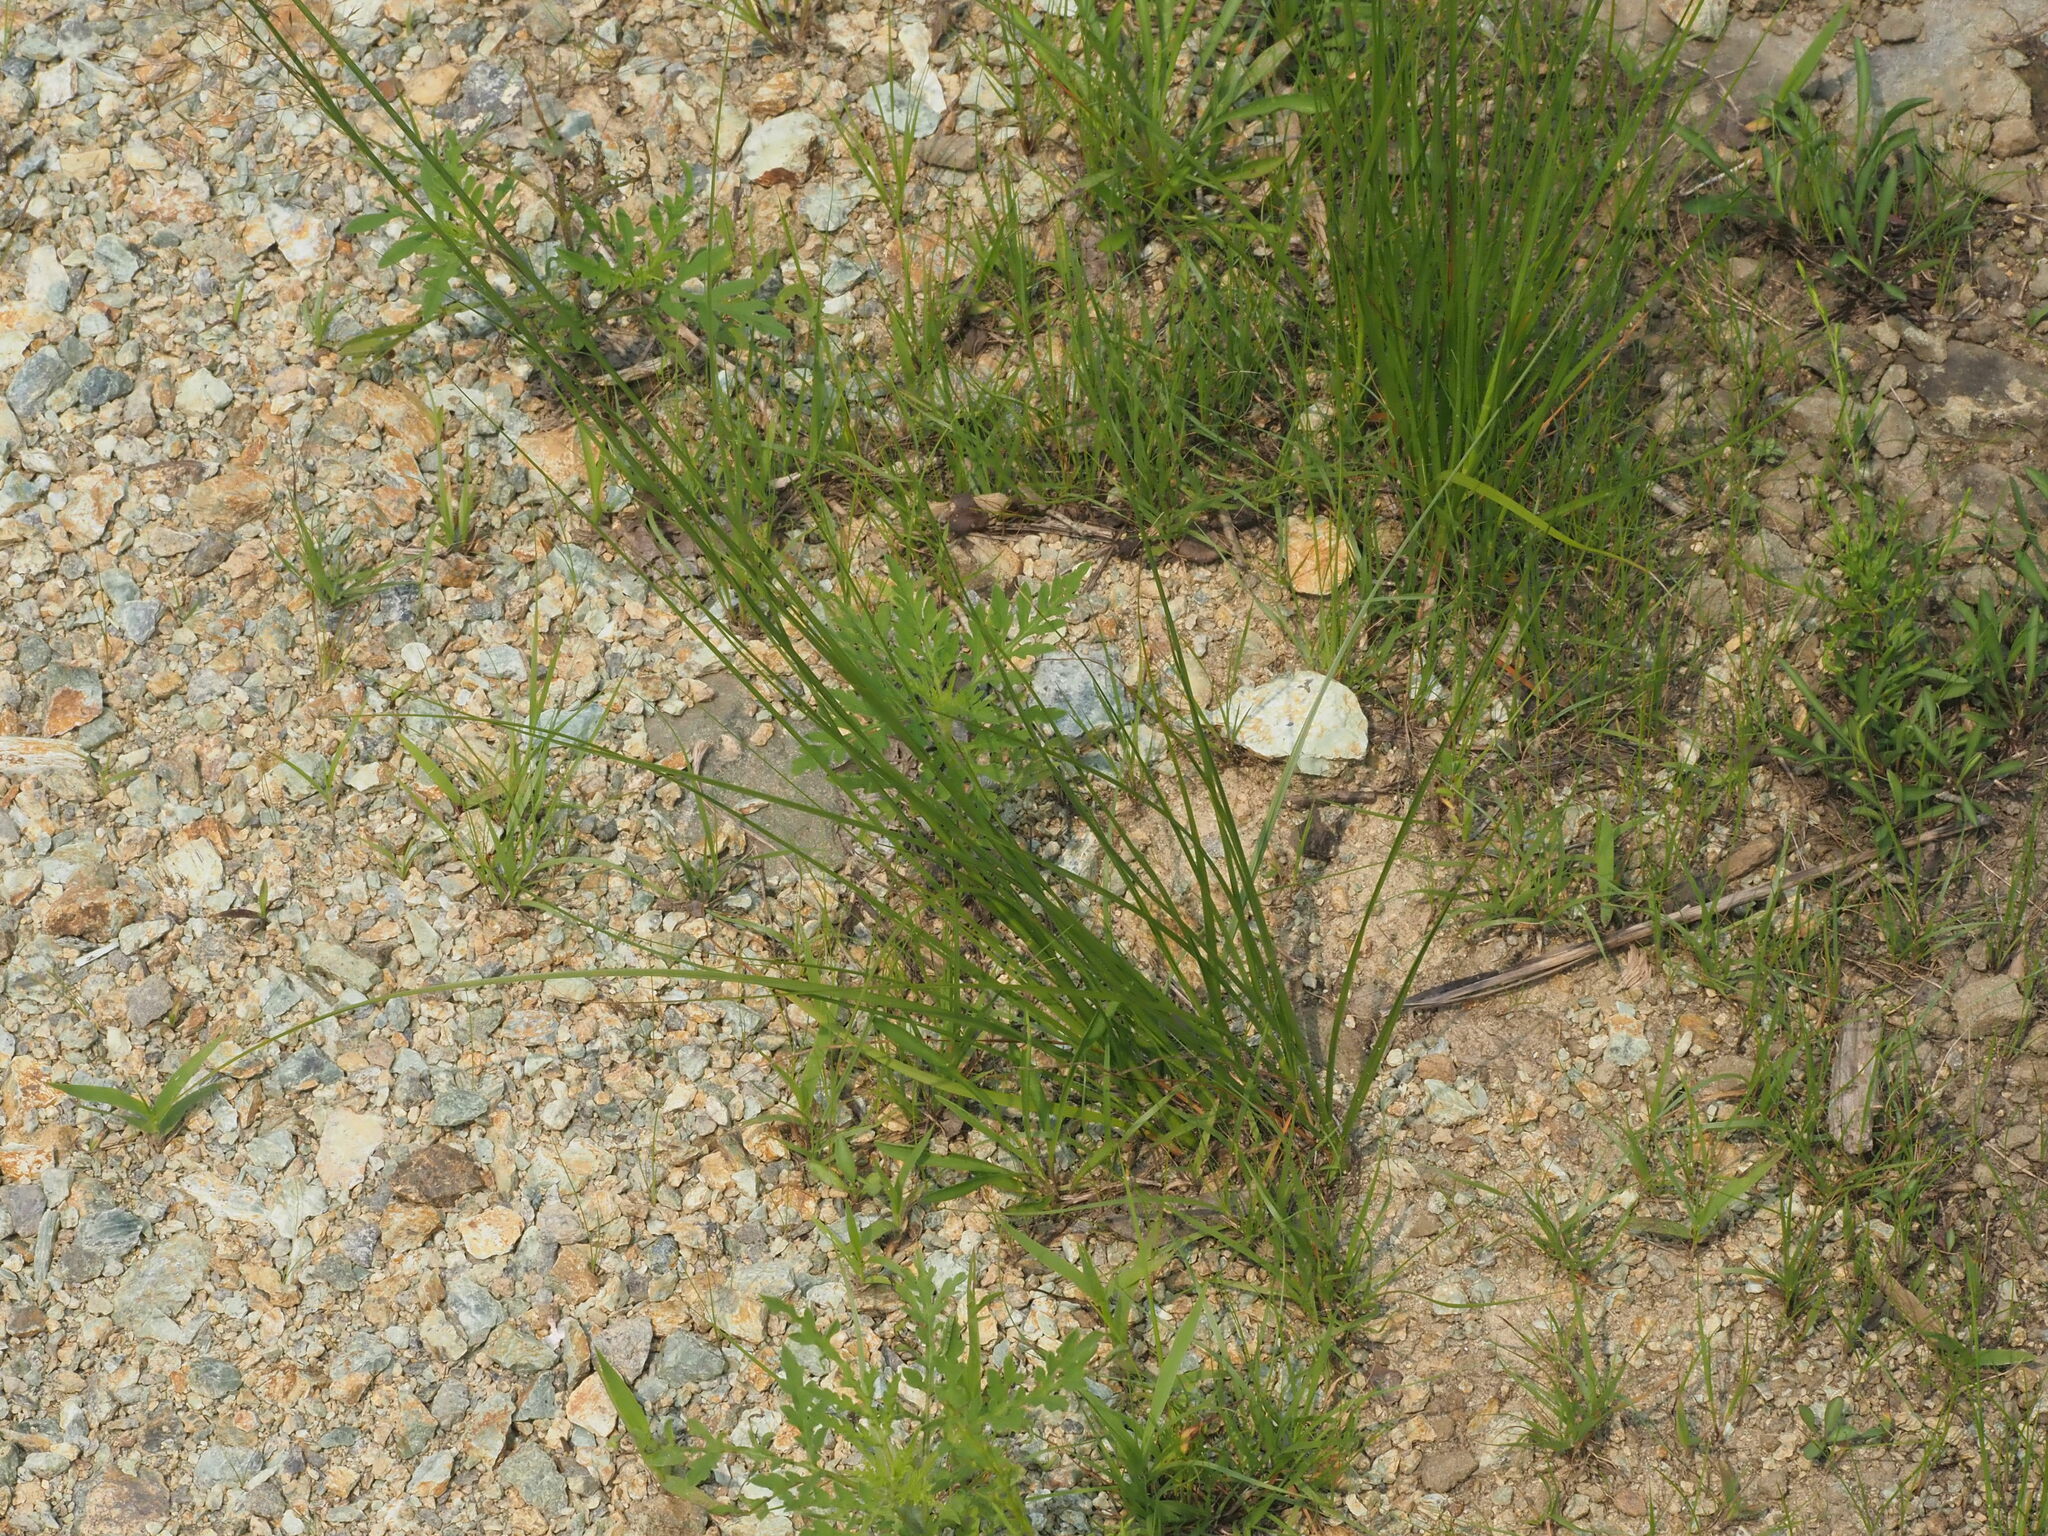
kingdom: Plantae
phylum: Tracheophyta
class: Liliopsida
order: Poales
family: Poaceae
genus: Schizachyrium
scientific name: Schizachyrium scoparium
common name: Little bluestem
